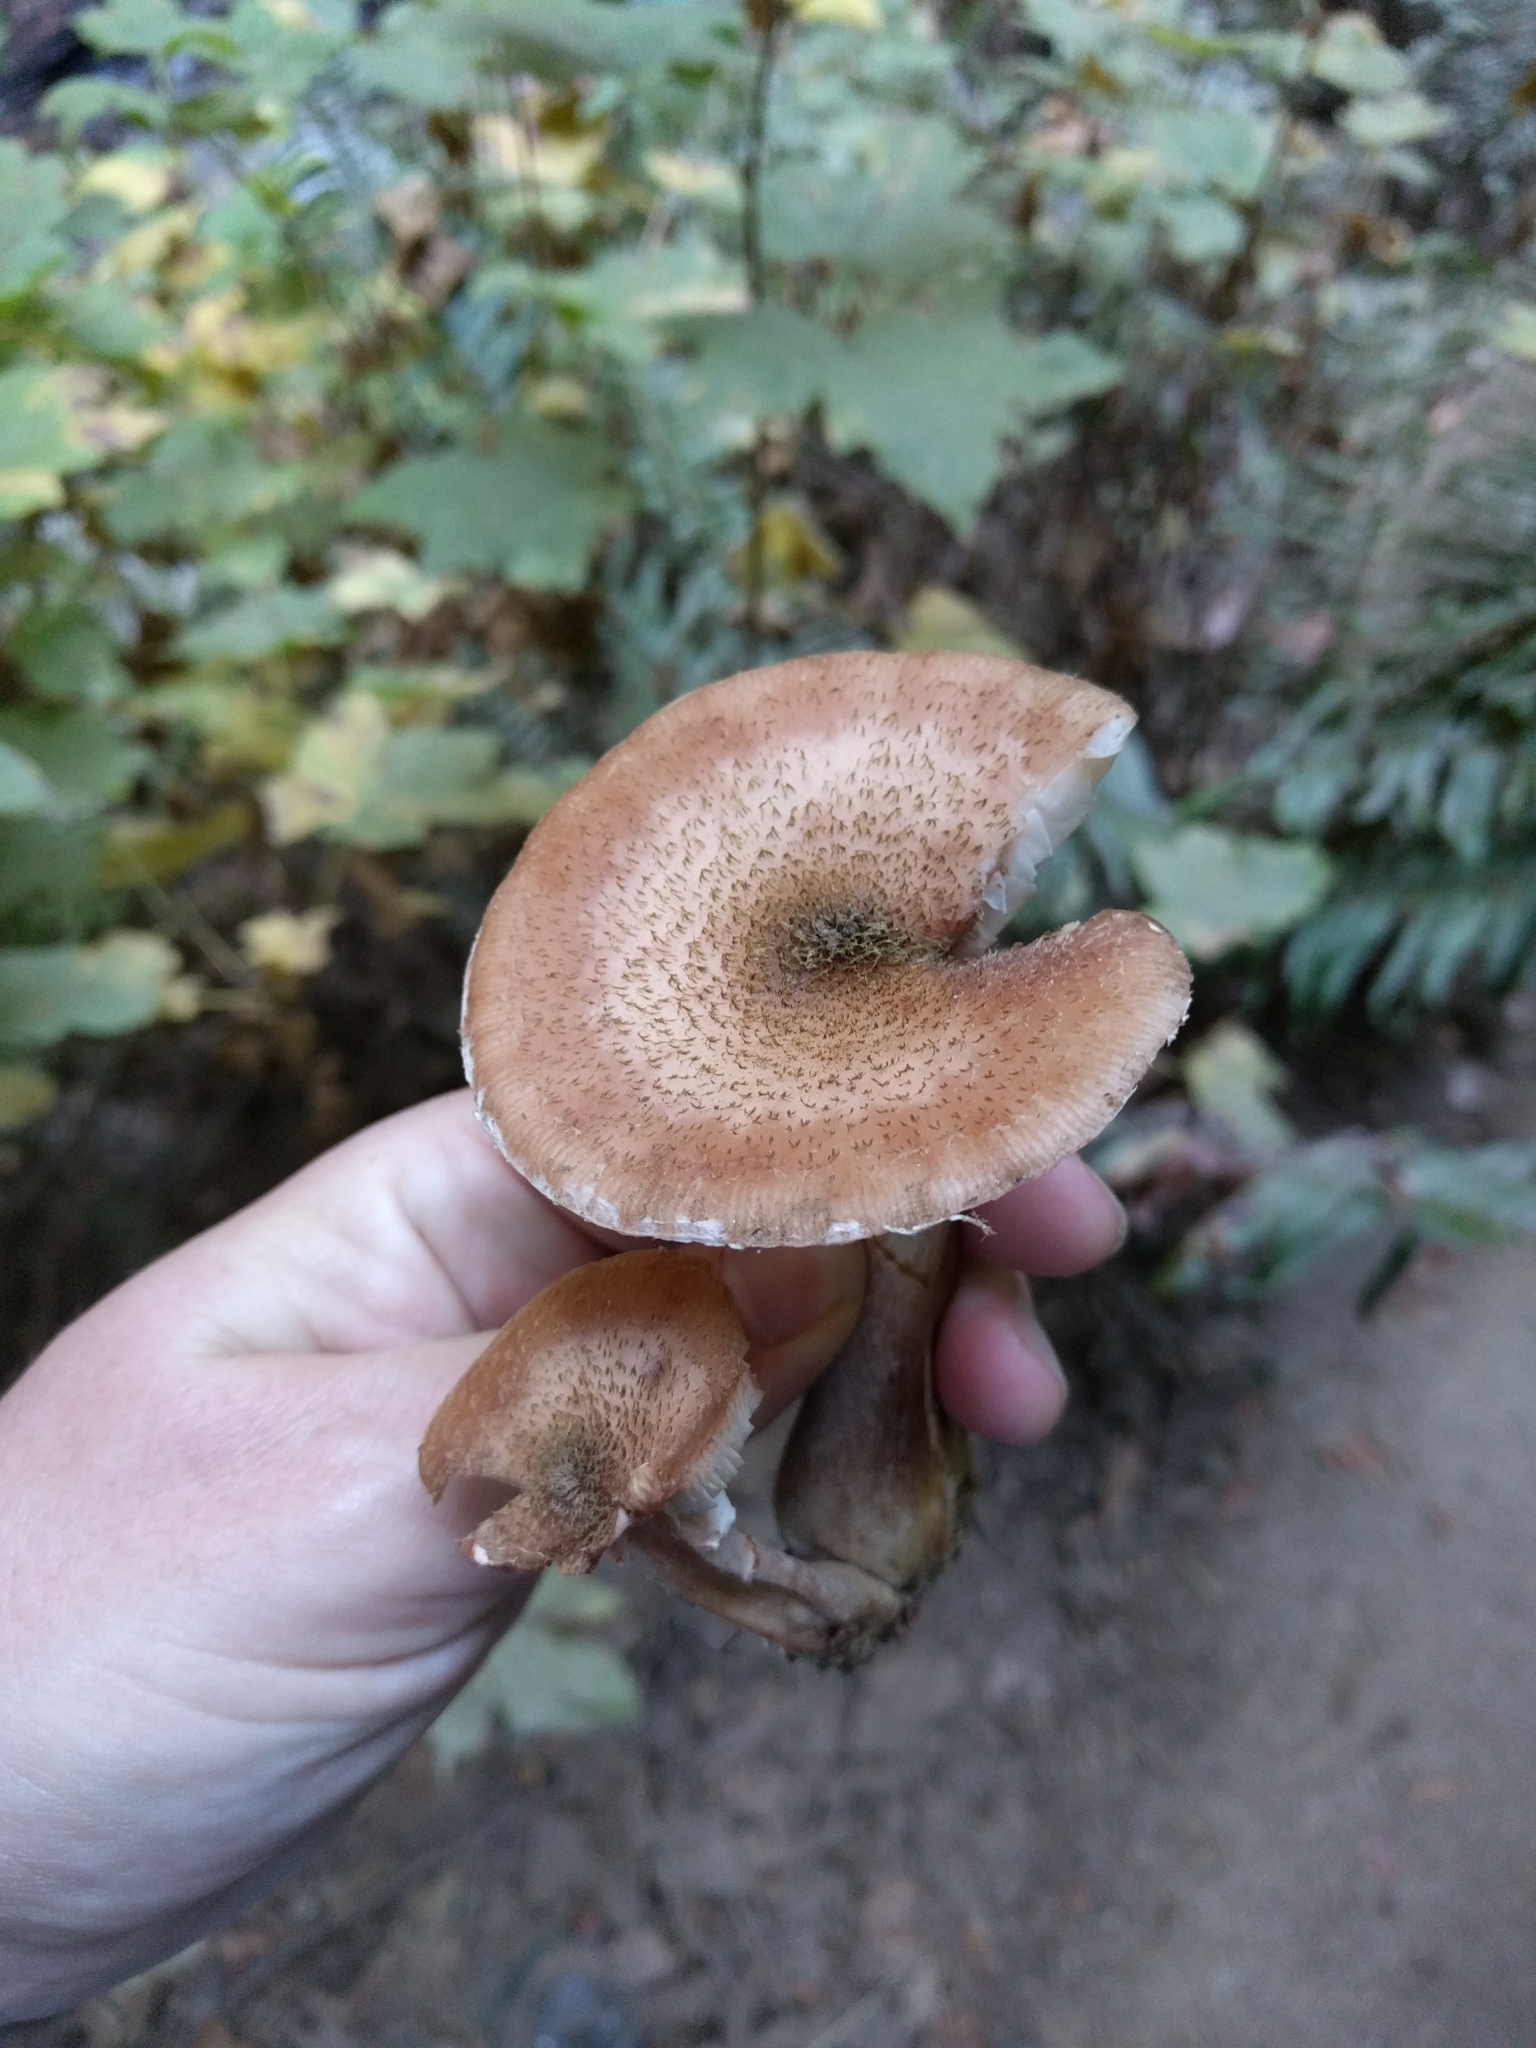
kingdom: Fungi
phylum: Basidiomycota
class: Agaricomycetes
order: Agaricales
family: Physalacriaceae
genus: Armillaria
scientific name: Armillaria sinapina
